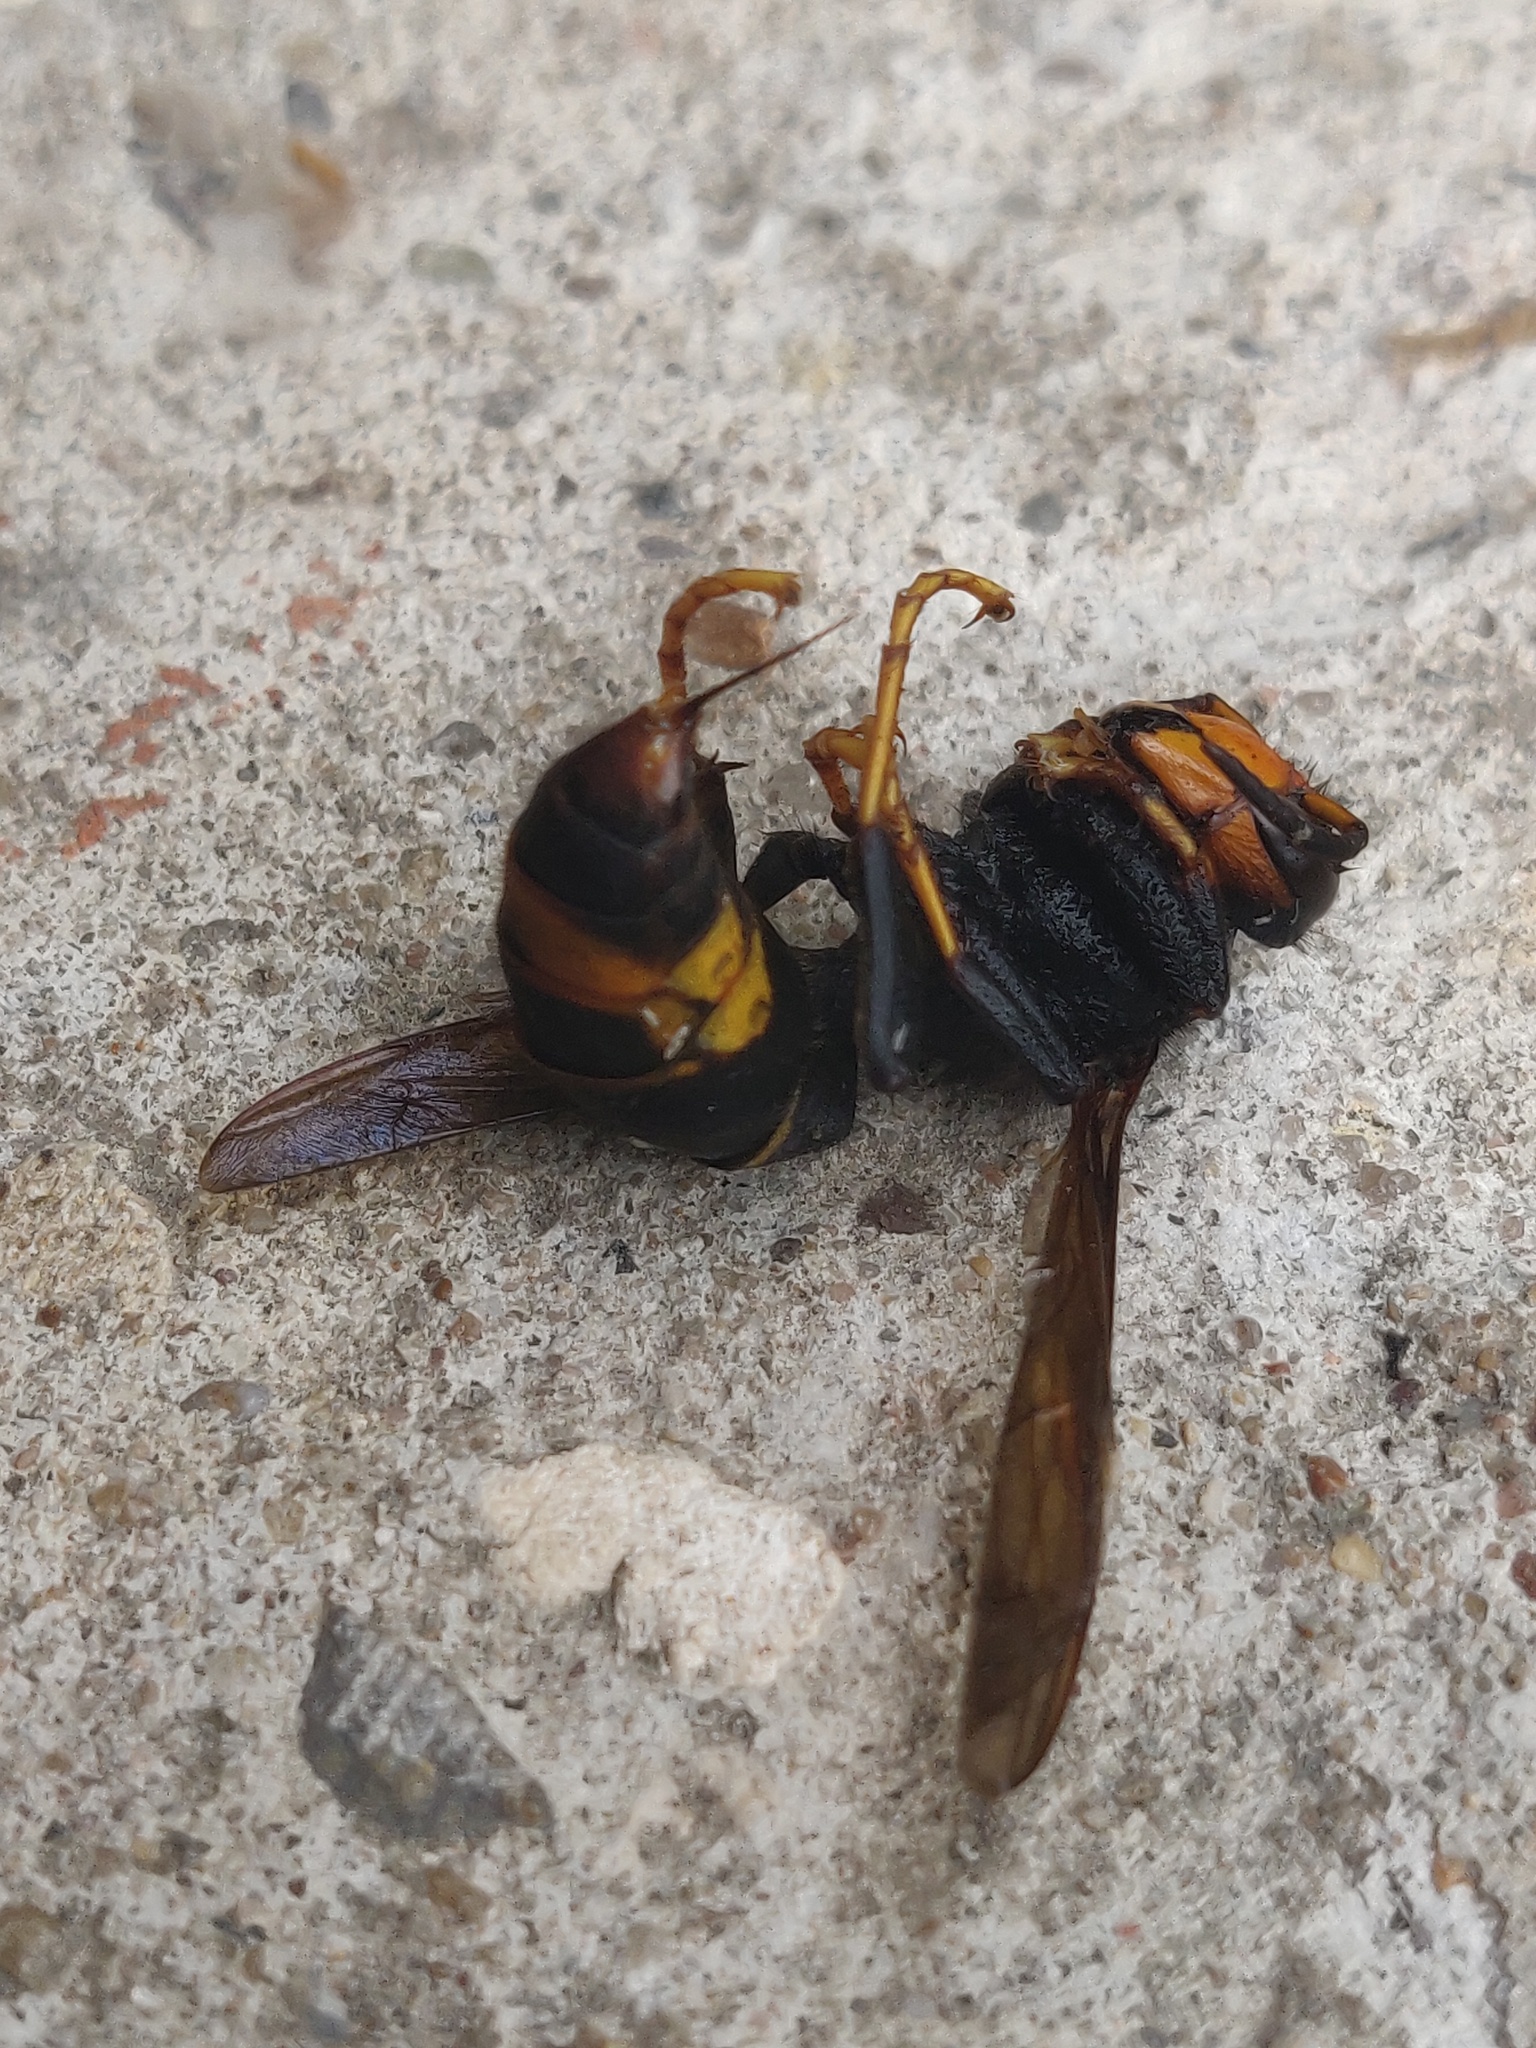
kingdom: Animalia
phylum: Arthropoda
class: Insecta
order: Hymenoptera
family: Vespidae
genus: Vespa
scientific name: Vespa velutina
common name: Asian hornet
